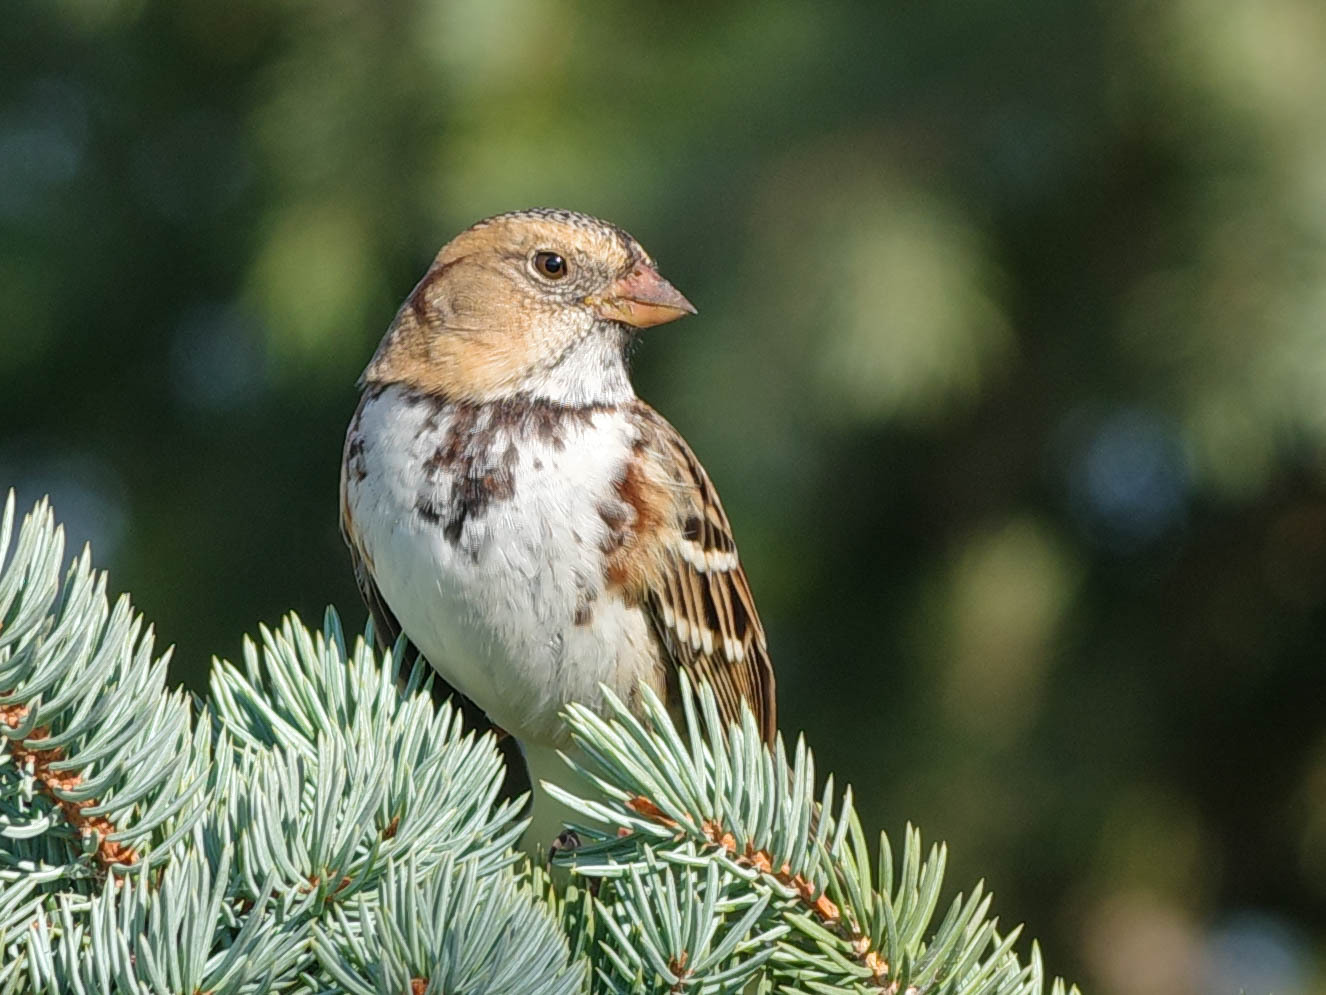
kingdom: Animalia
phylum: Chordata
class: Aves
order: Passeriformes
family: Passerellidae
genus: Zonotrichia
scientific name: Zonotrichia querula
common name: Harris's sparrow
